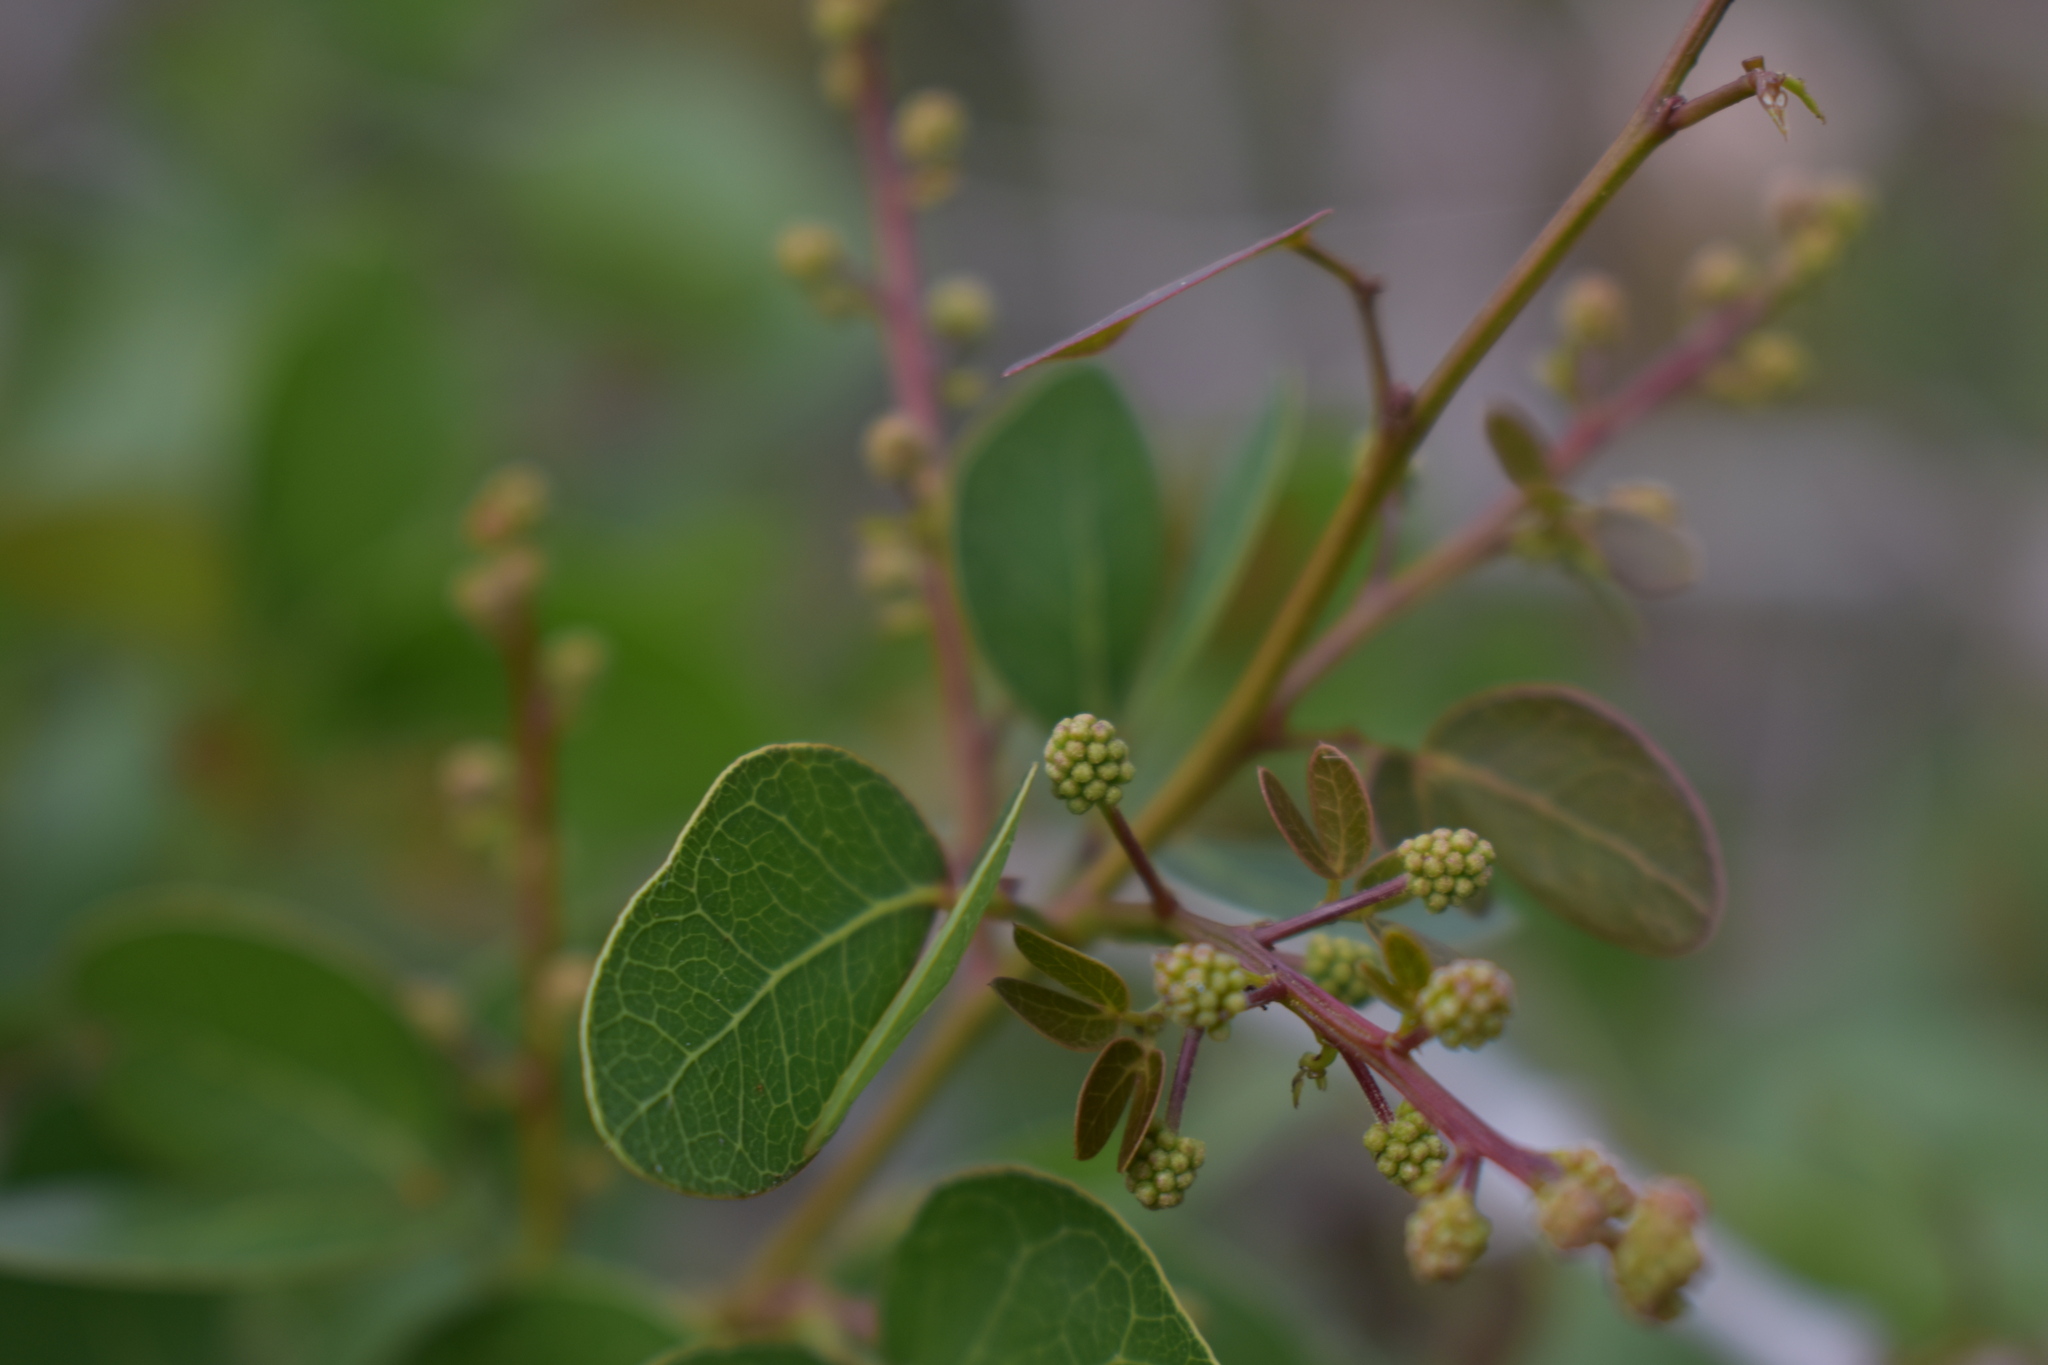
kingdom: Plantae
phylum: Tracheophyta
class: Magnoliopsida
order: Fabales
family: Fabaceae
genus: Pithecellobium
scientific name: Pithecellobium unguis-cati
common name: Cat's-claw
